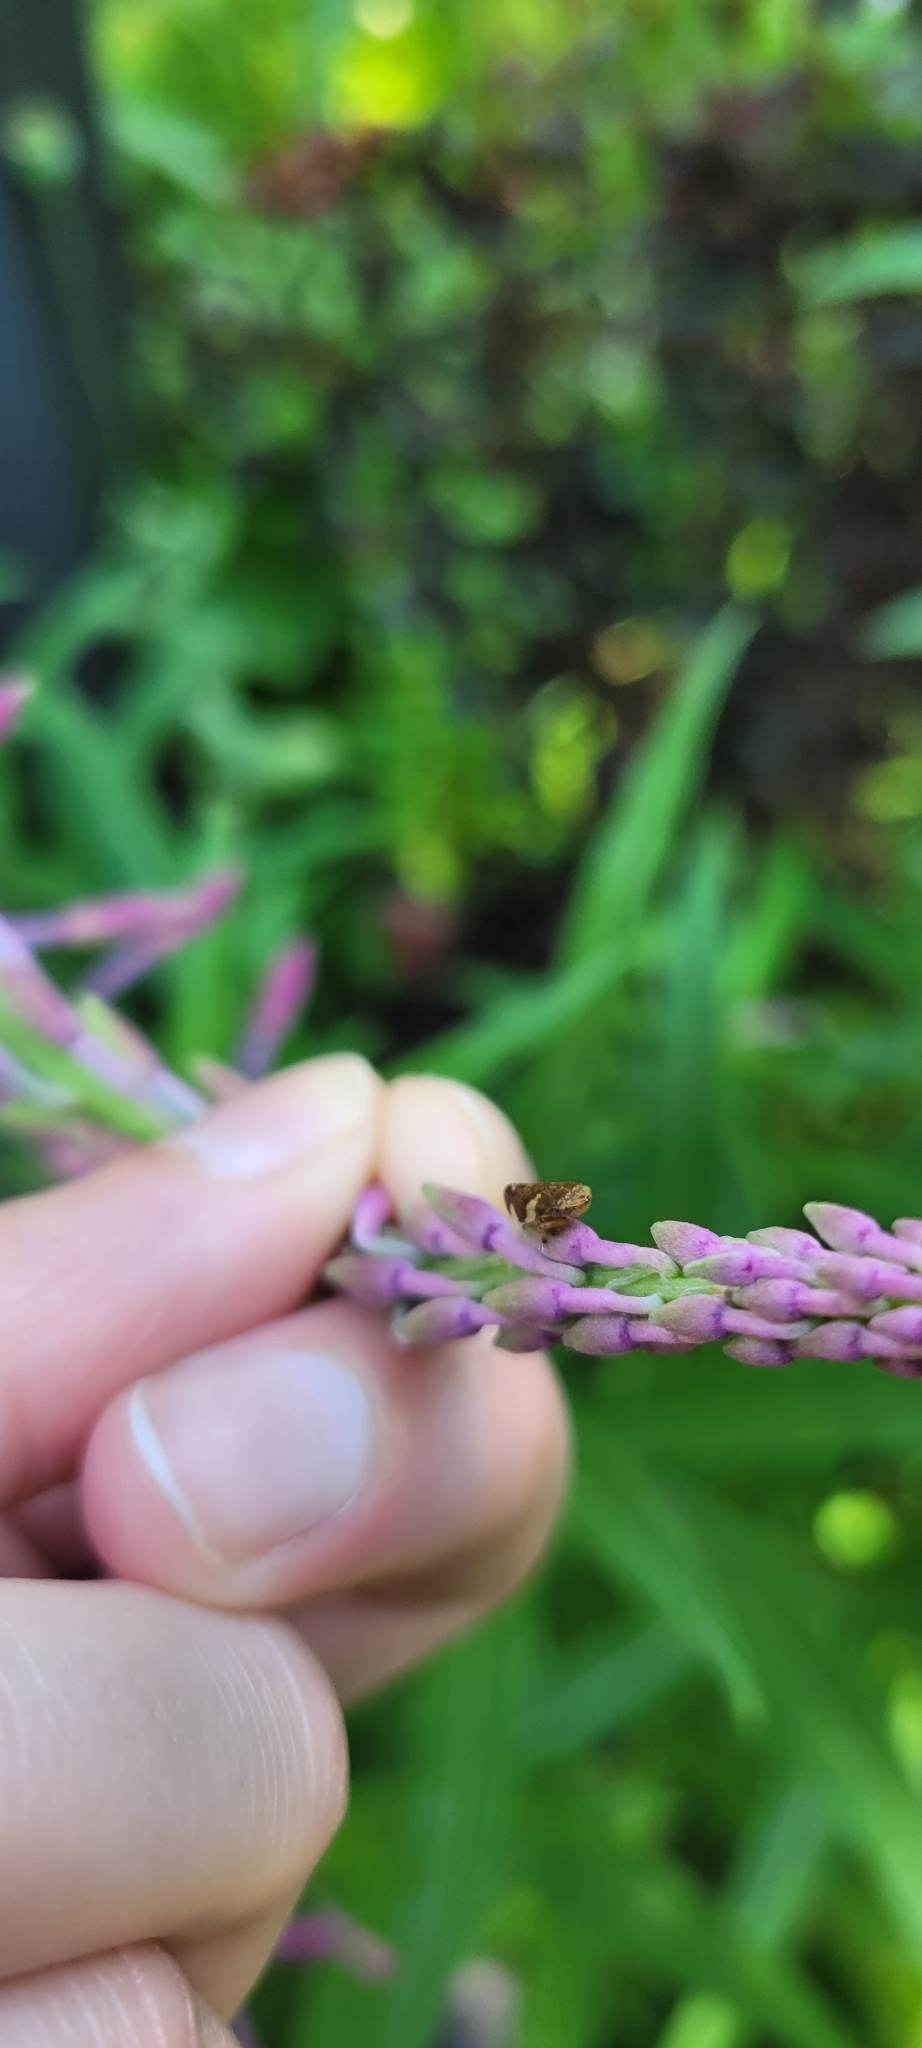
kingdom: Animalia
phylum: Arthropoda
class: Insecta
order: Hemiptera
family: Aphrophoridae
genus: Philaenus
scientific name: Philaenus spumarius
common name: Meadow spittlebug
